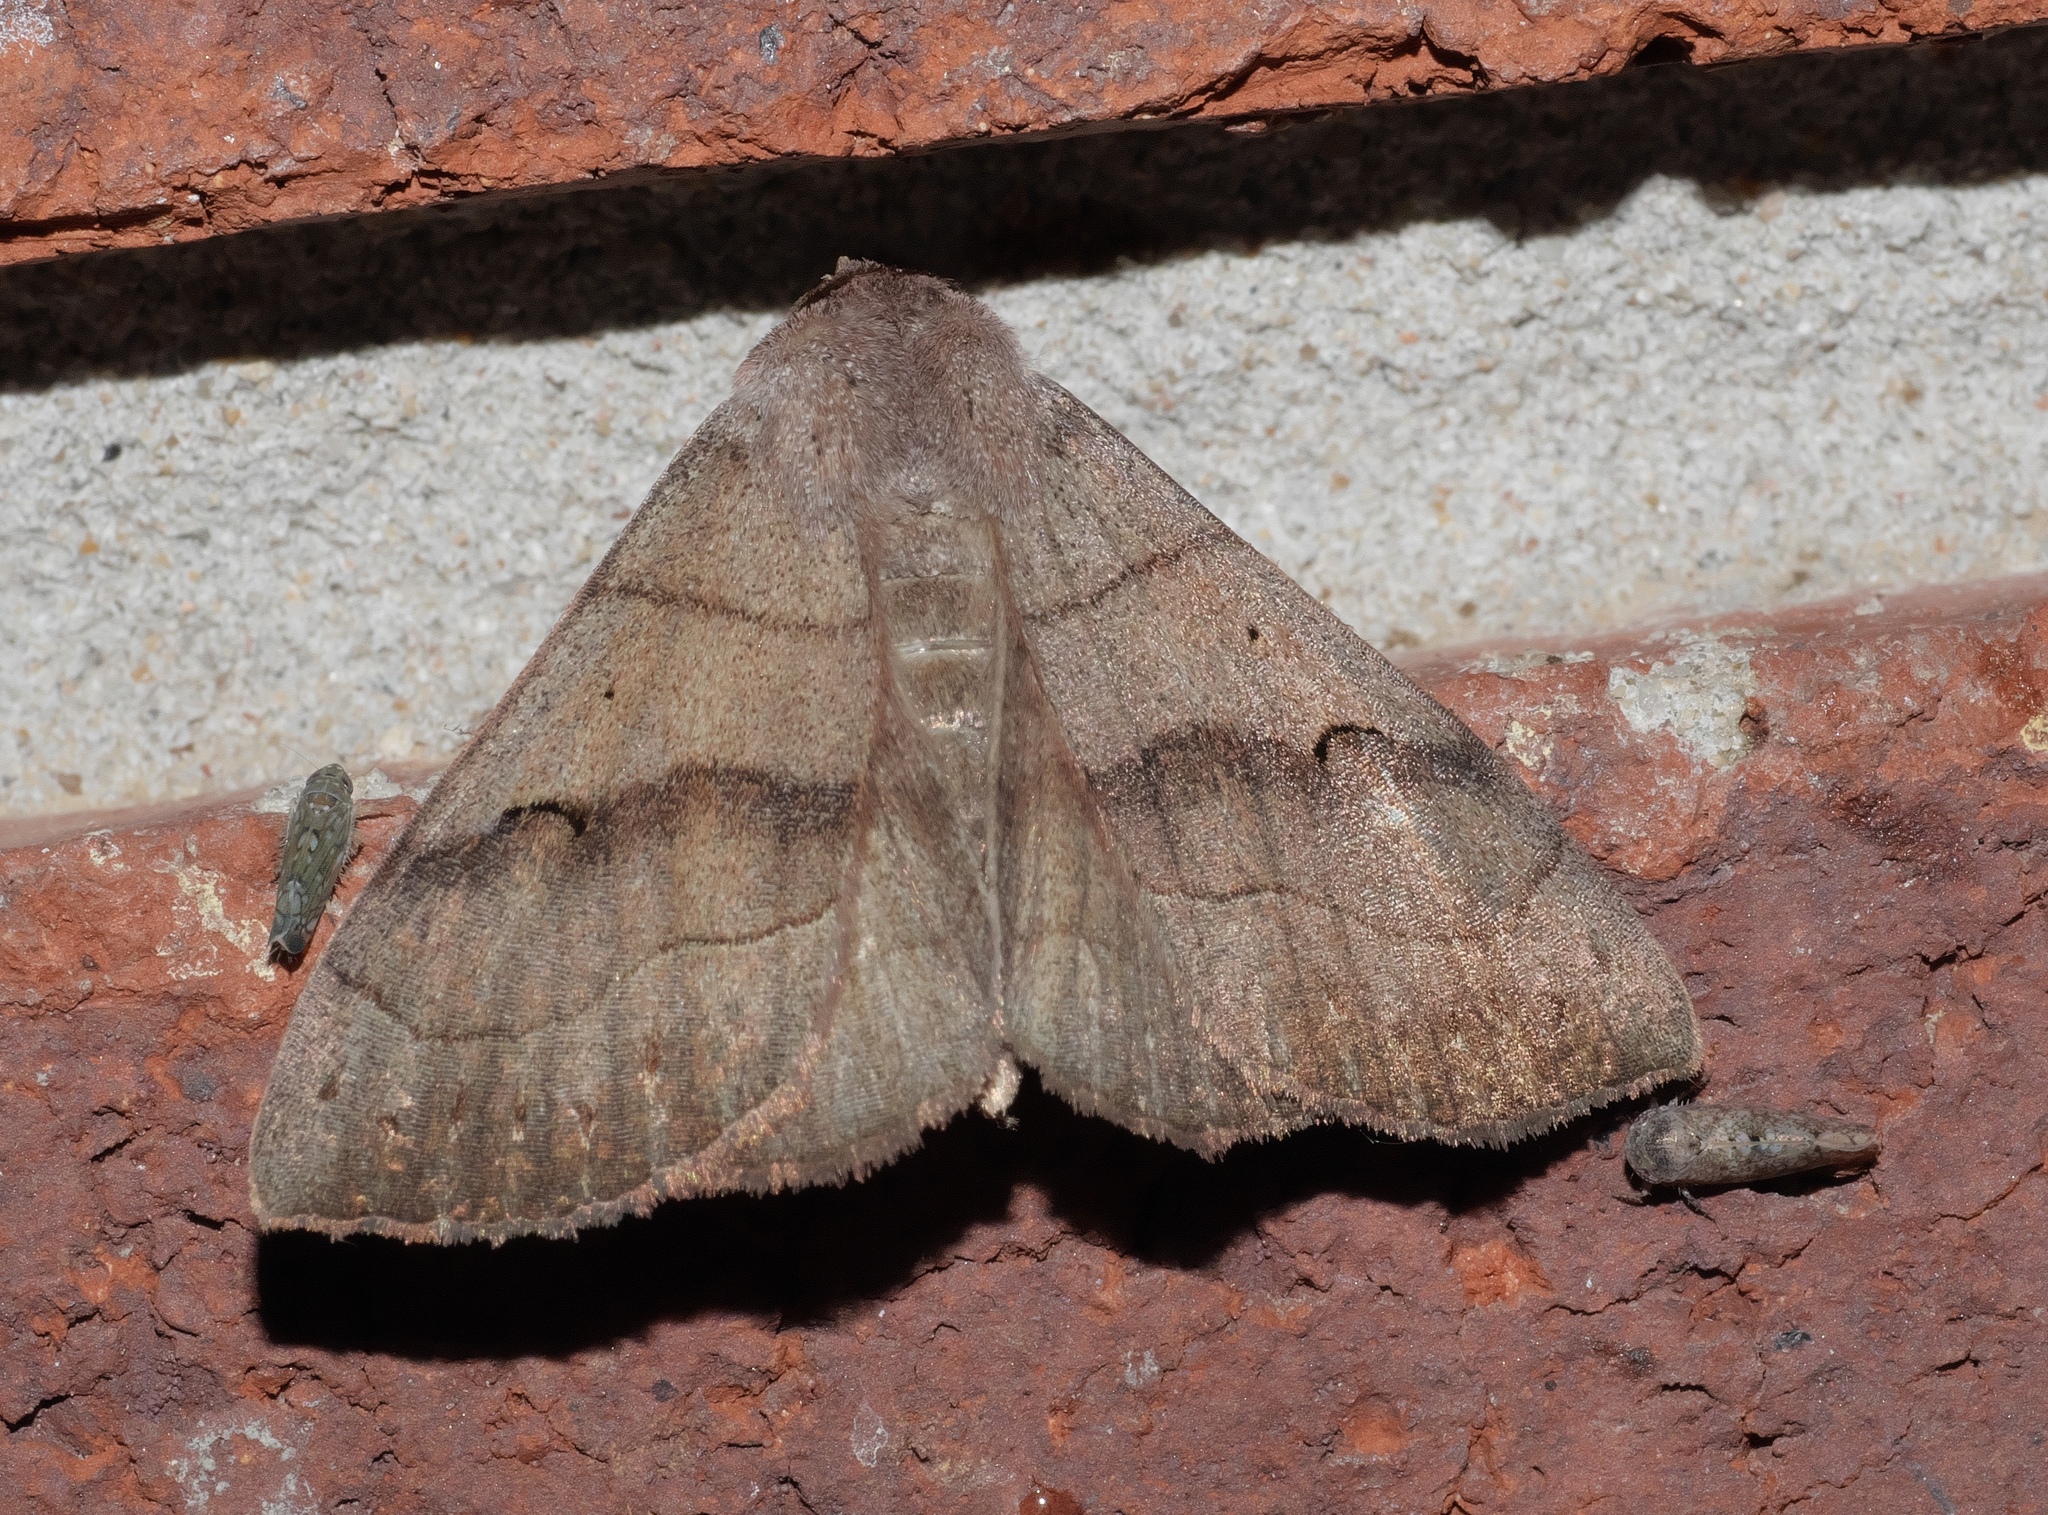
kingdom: Animalia
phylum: Arthropoda
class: Insecta
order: Lepidoptera
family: Erebidae
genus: Panopoda
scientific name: Panopoda carneicosta
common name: Brown panopoda moth
